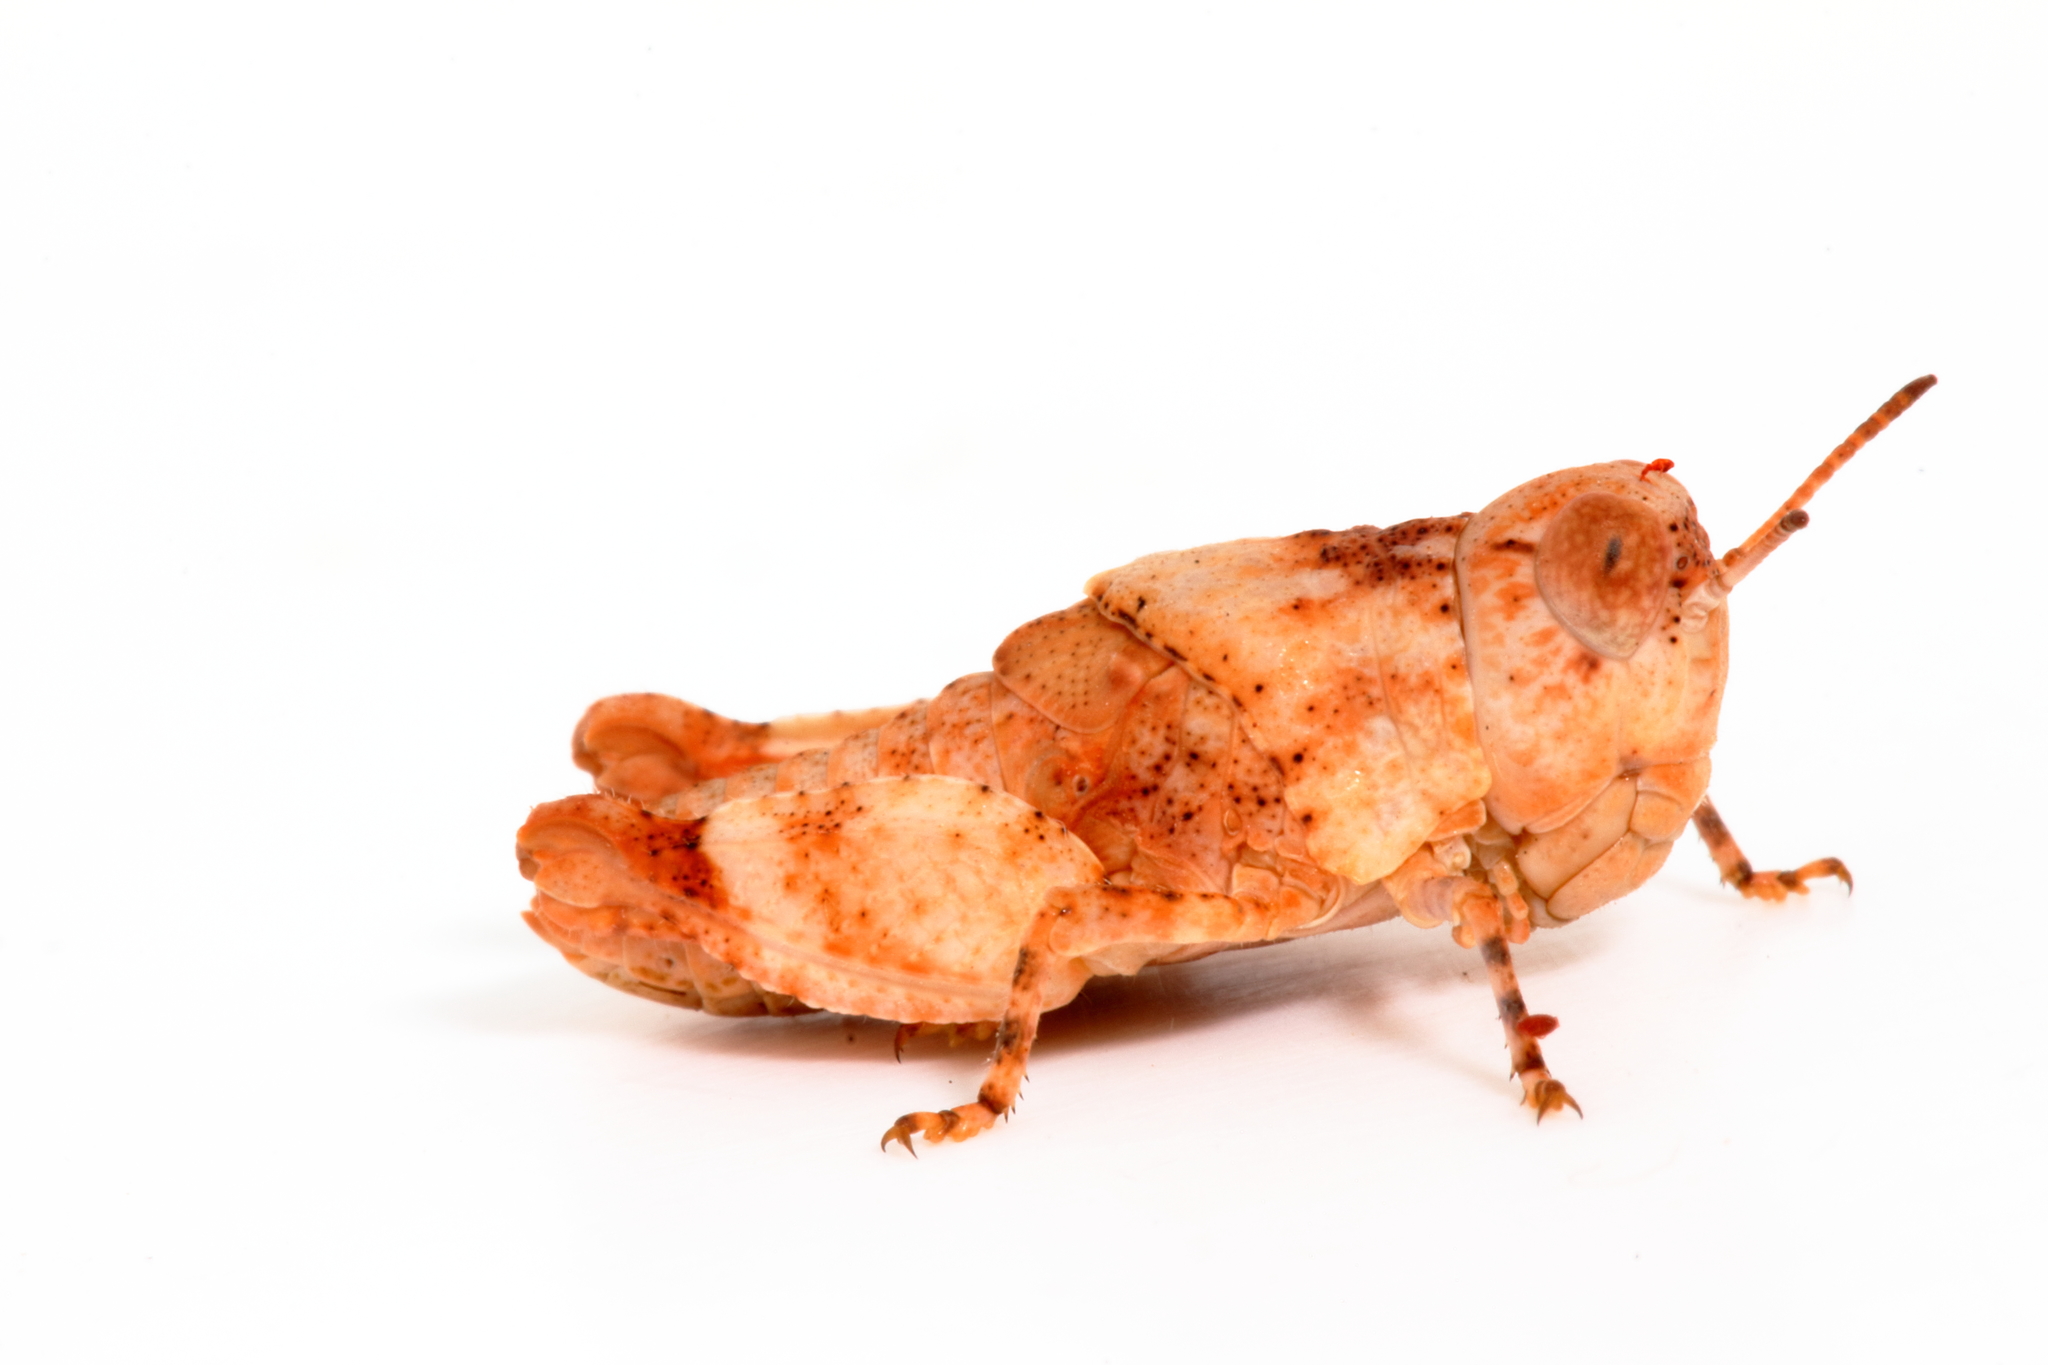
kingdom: Animalia
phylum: Arthropoda
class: Insecta
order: Orthoptera
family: Acrididae
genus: Qualetta
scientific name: Qualetta maculata
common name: Spotted bandwing
